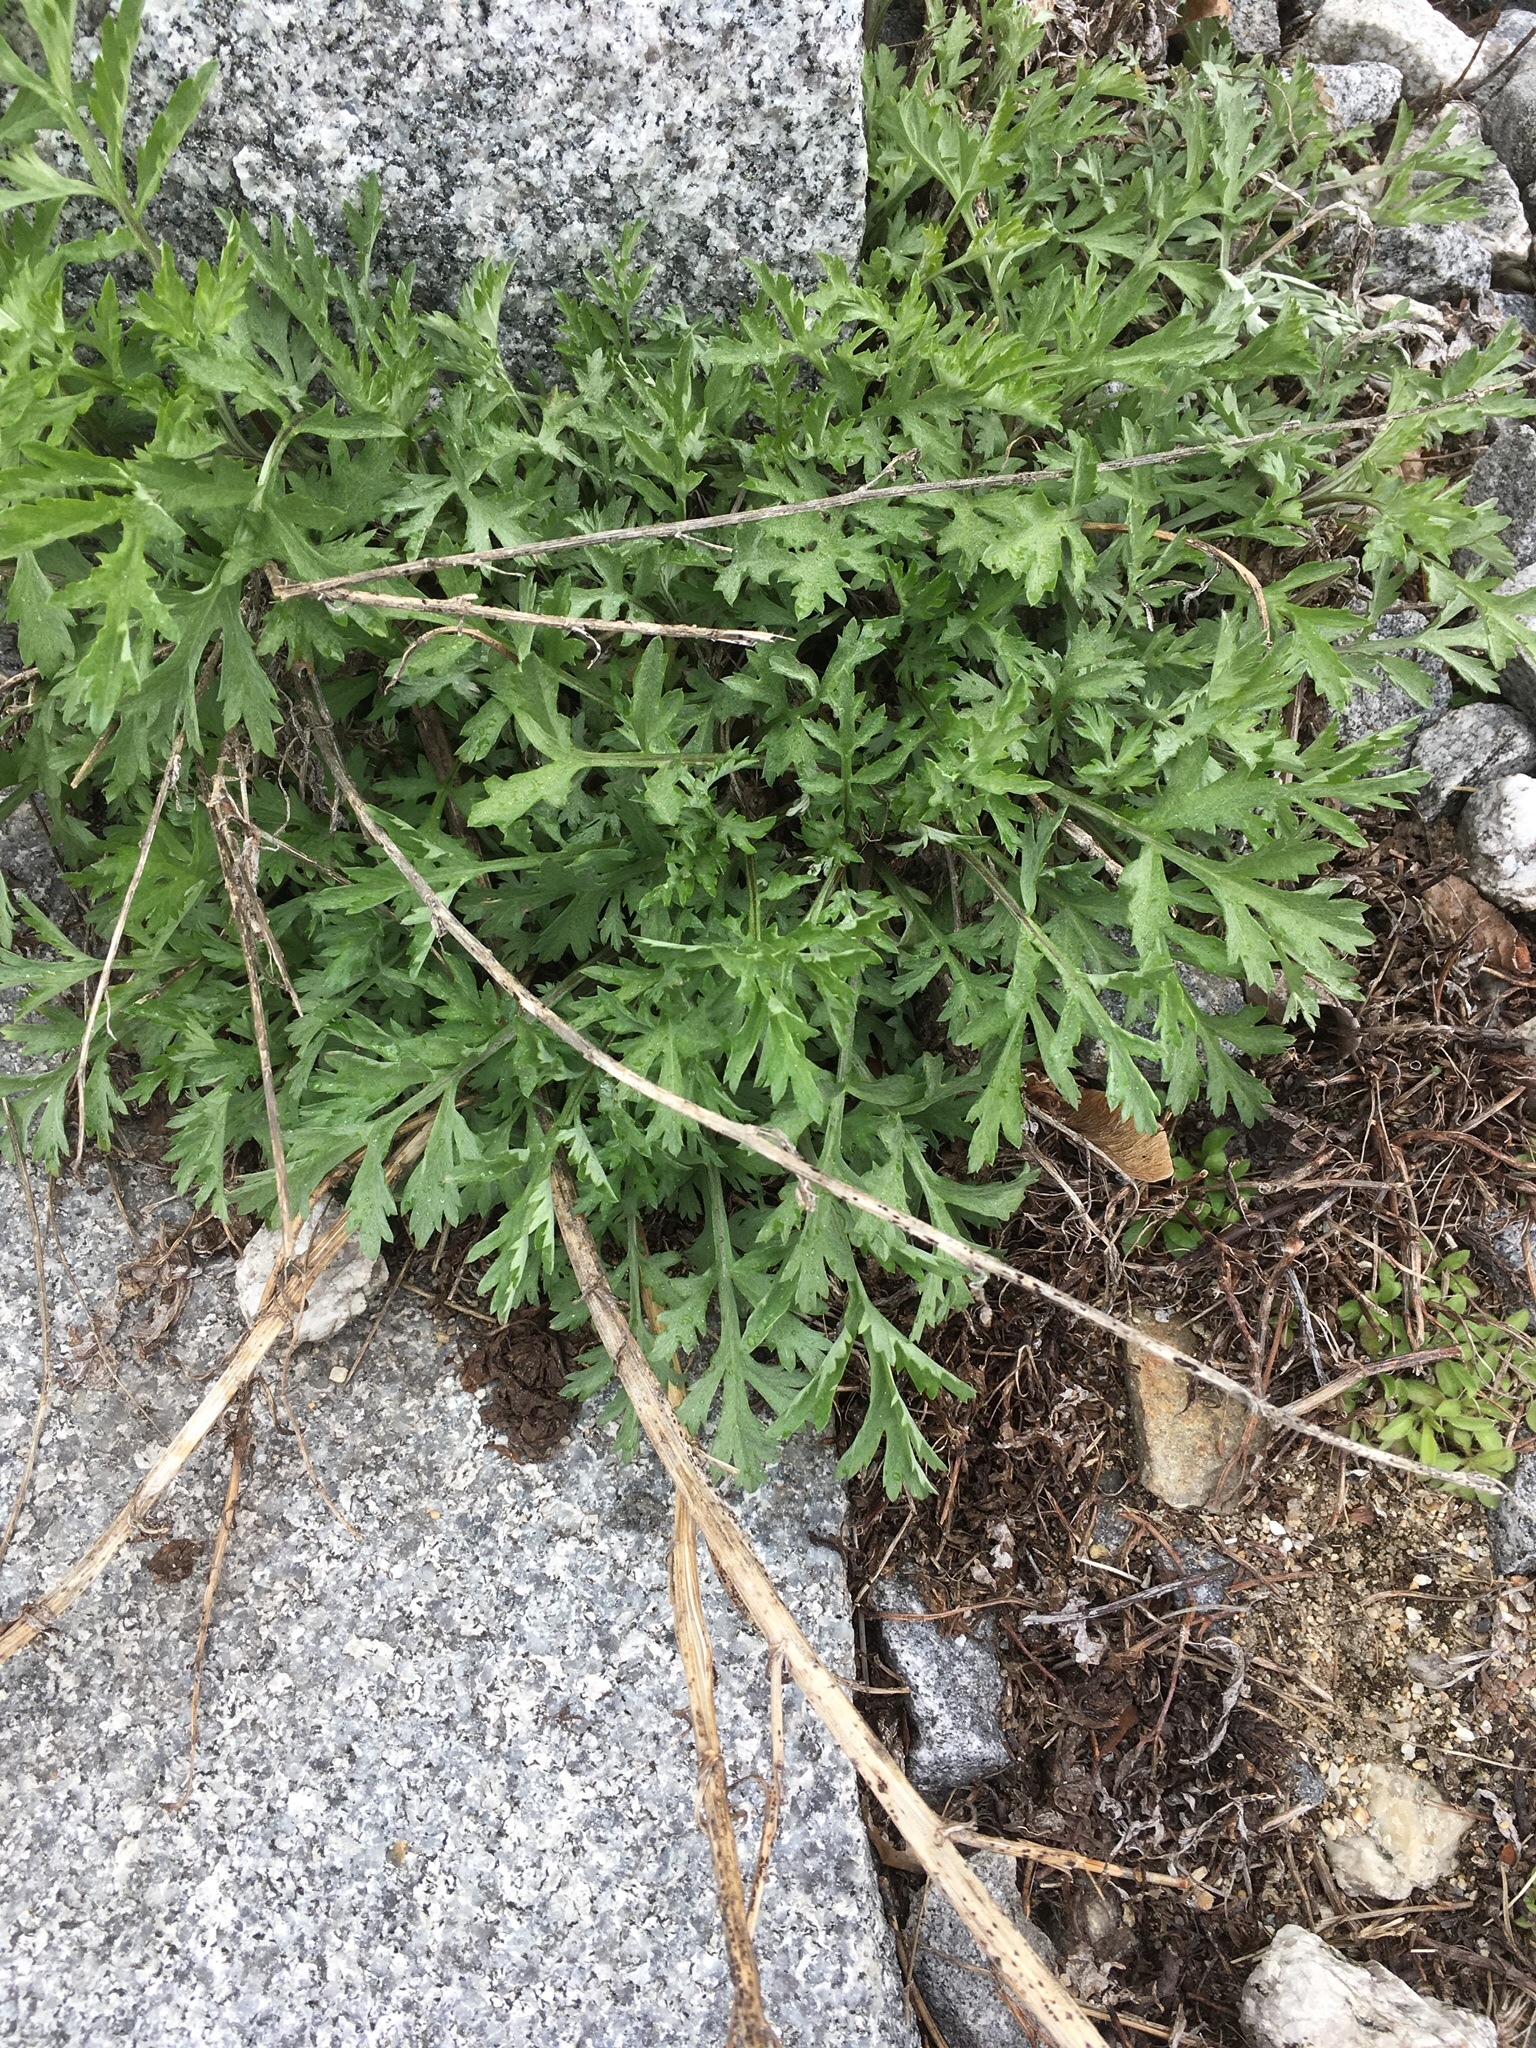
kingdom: Plantae
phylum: Tracheophyta
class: Magnoliopsida
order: Asterales
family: Asteraceae
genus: Artemisia
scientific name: Artemisia vulgaris
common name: Mugwort
